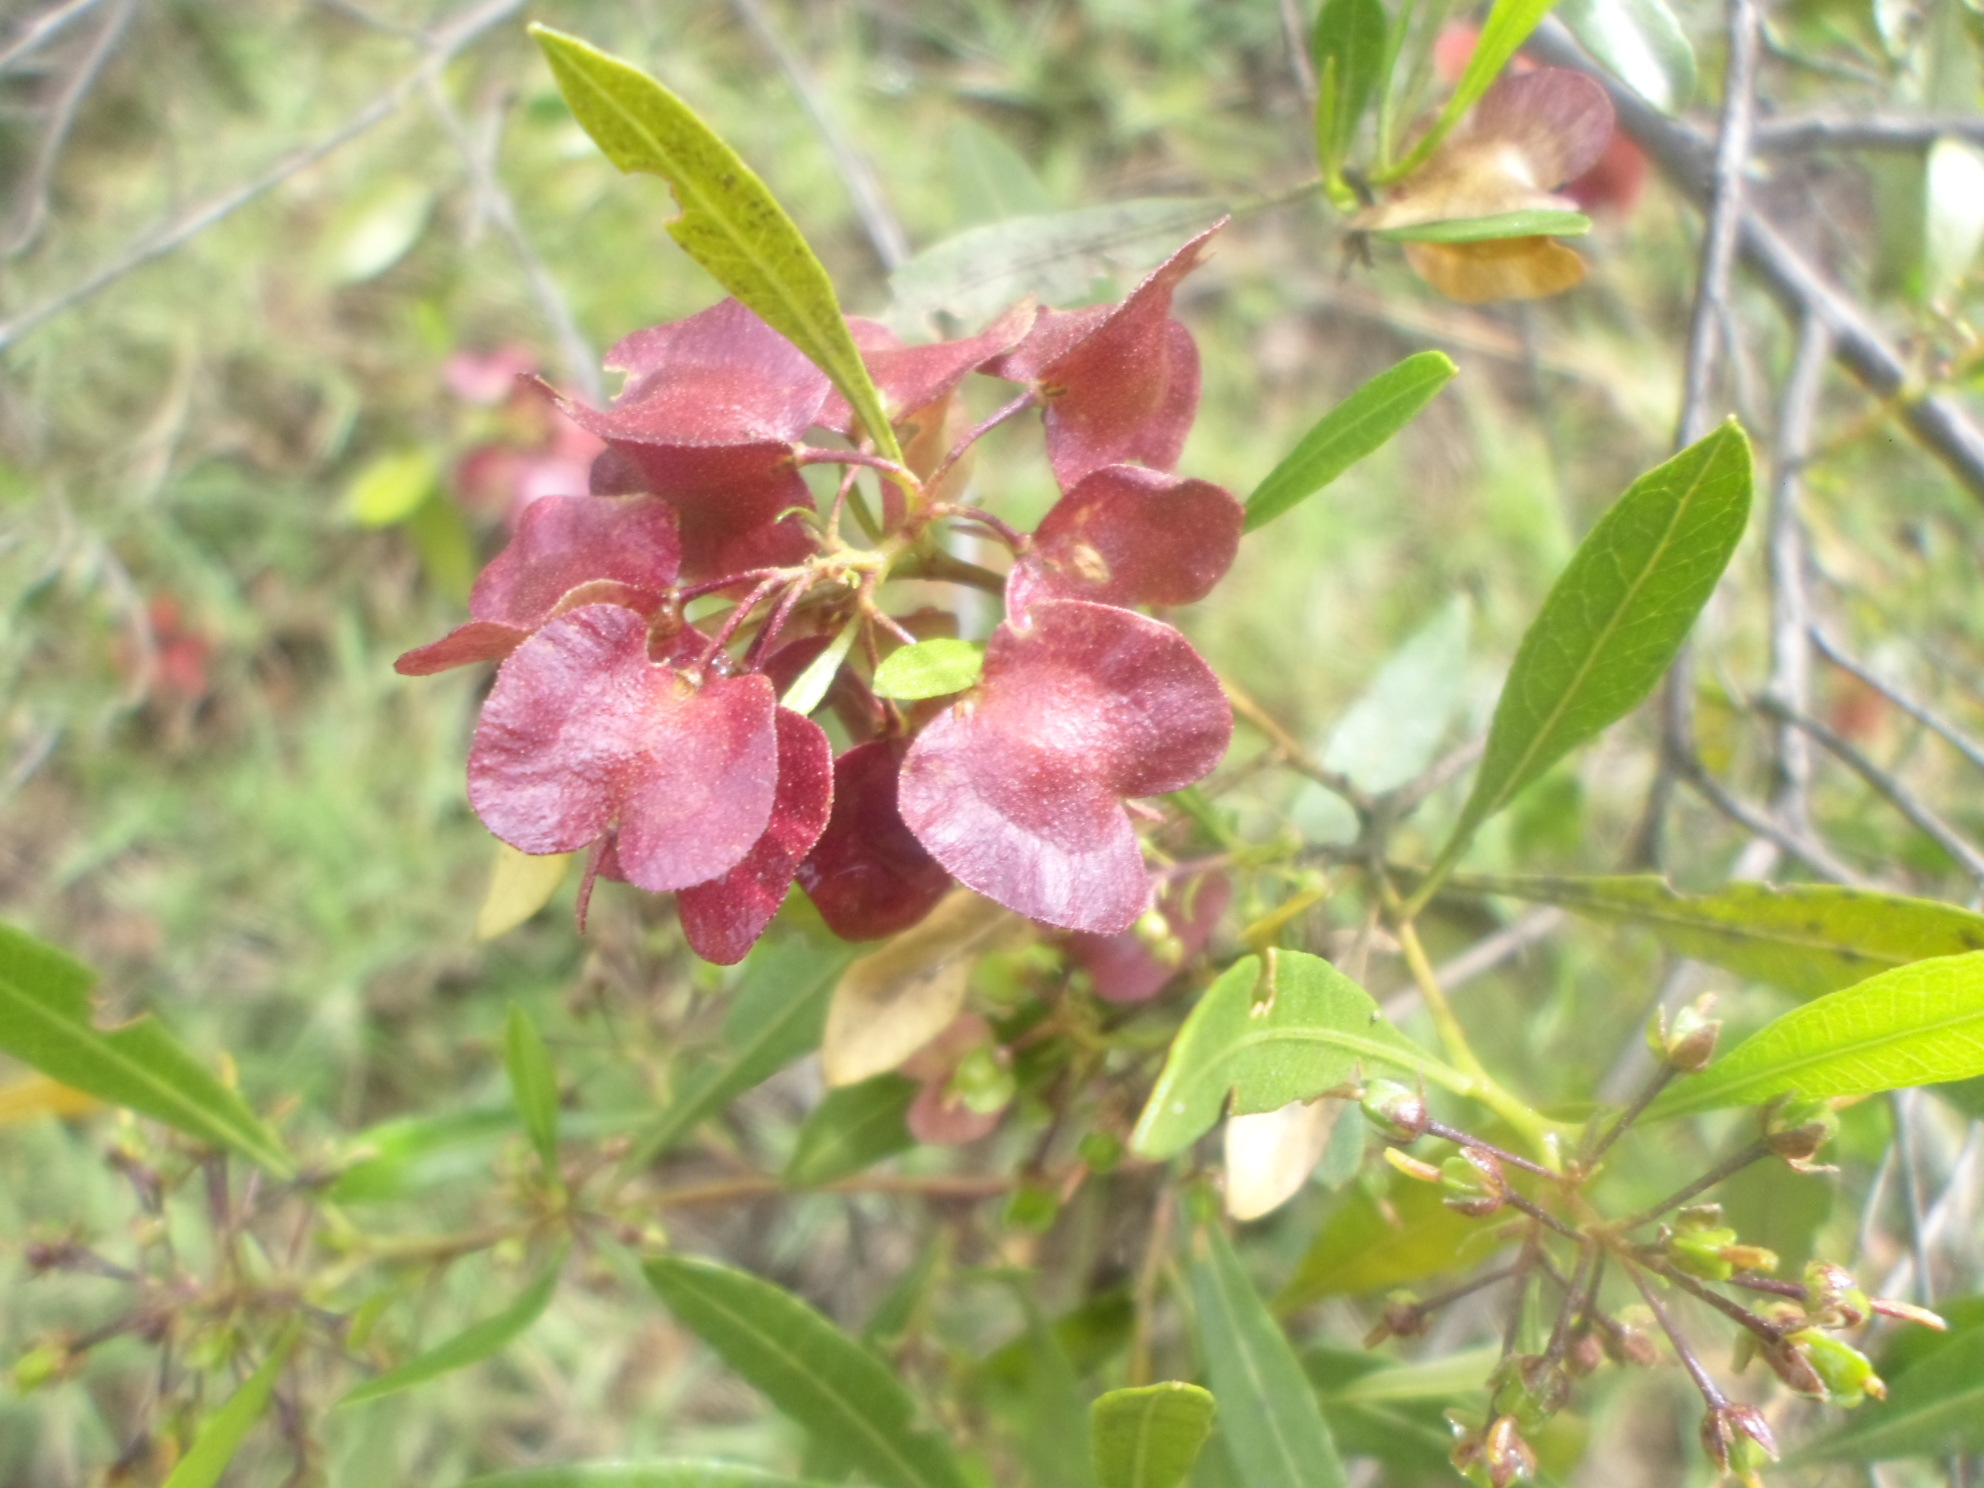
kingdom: Plantae
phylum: Tracheophyta
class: Magnoliopsida
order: Sapindales
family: Sapindaceae
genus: Dodonaea
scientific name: Dodonaea viscosa
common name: Hopbush
